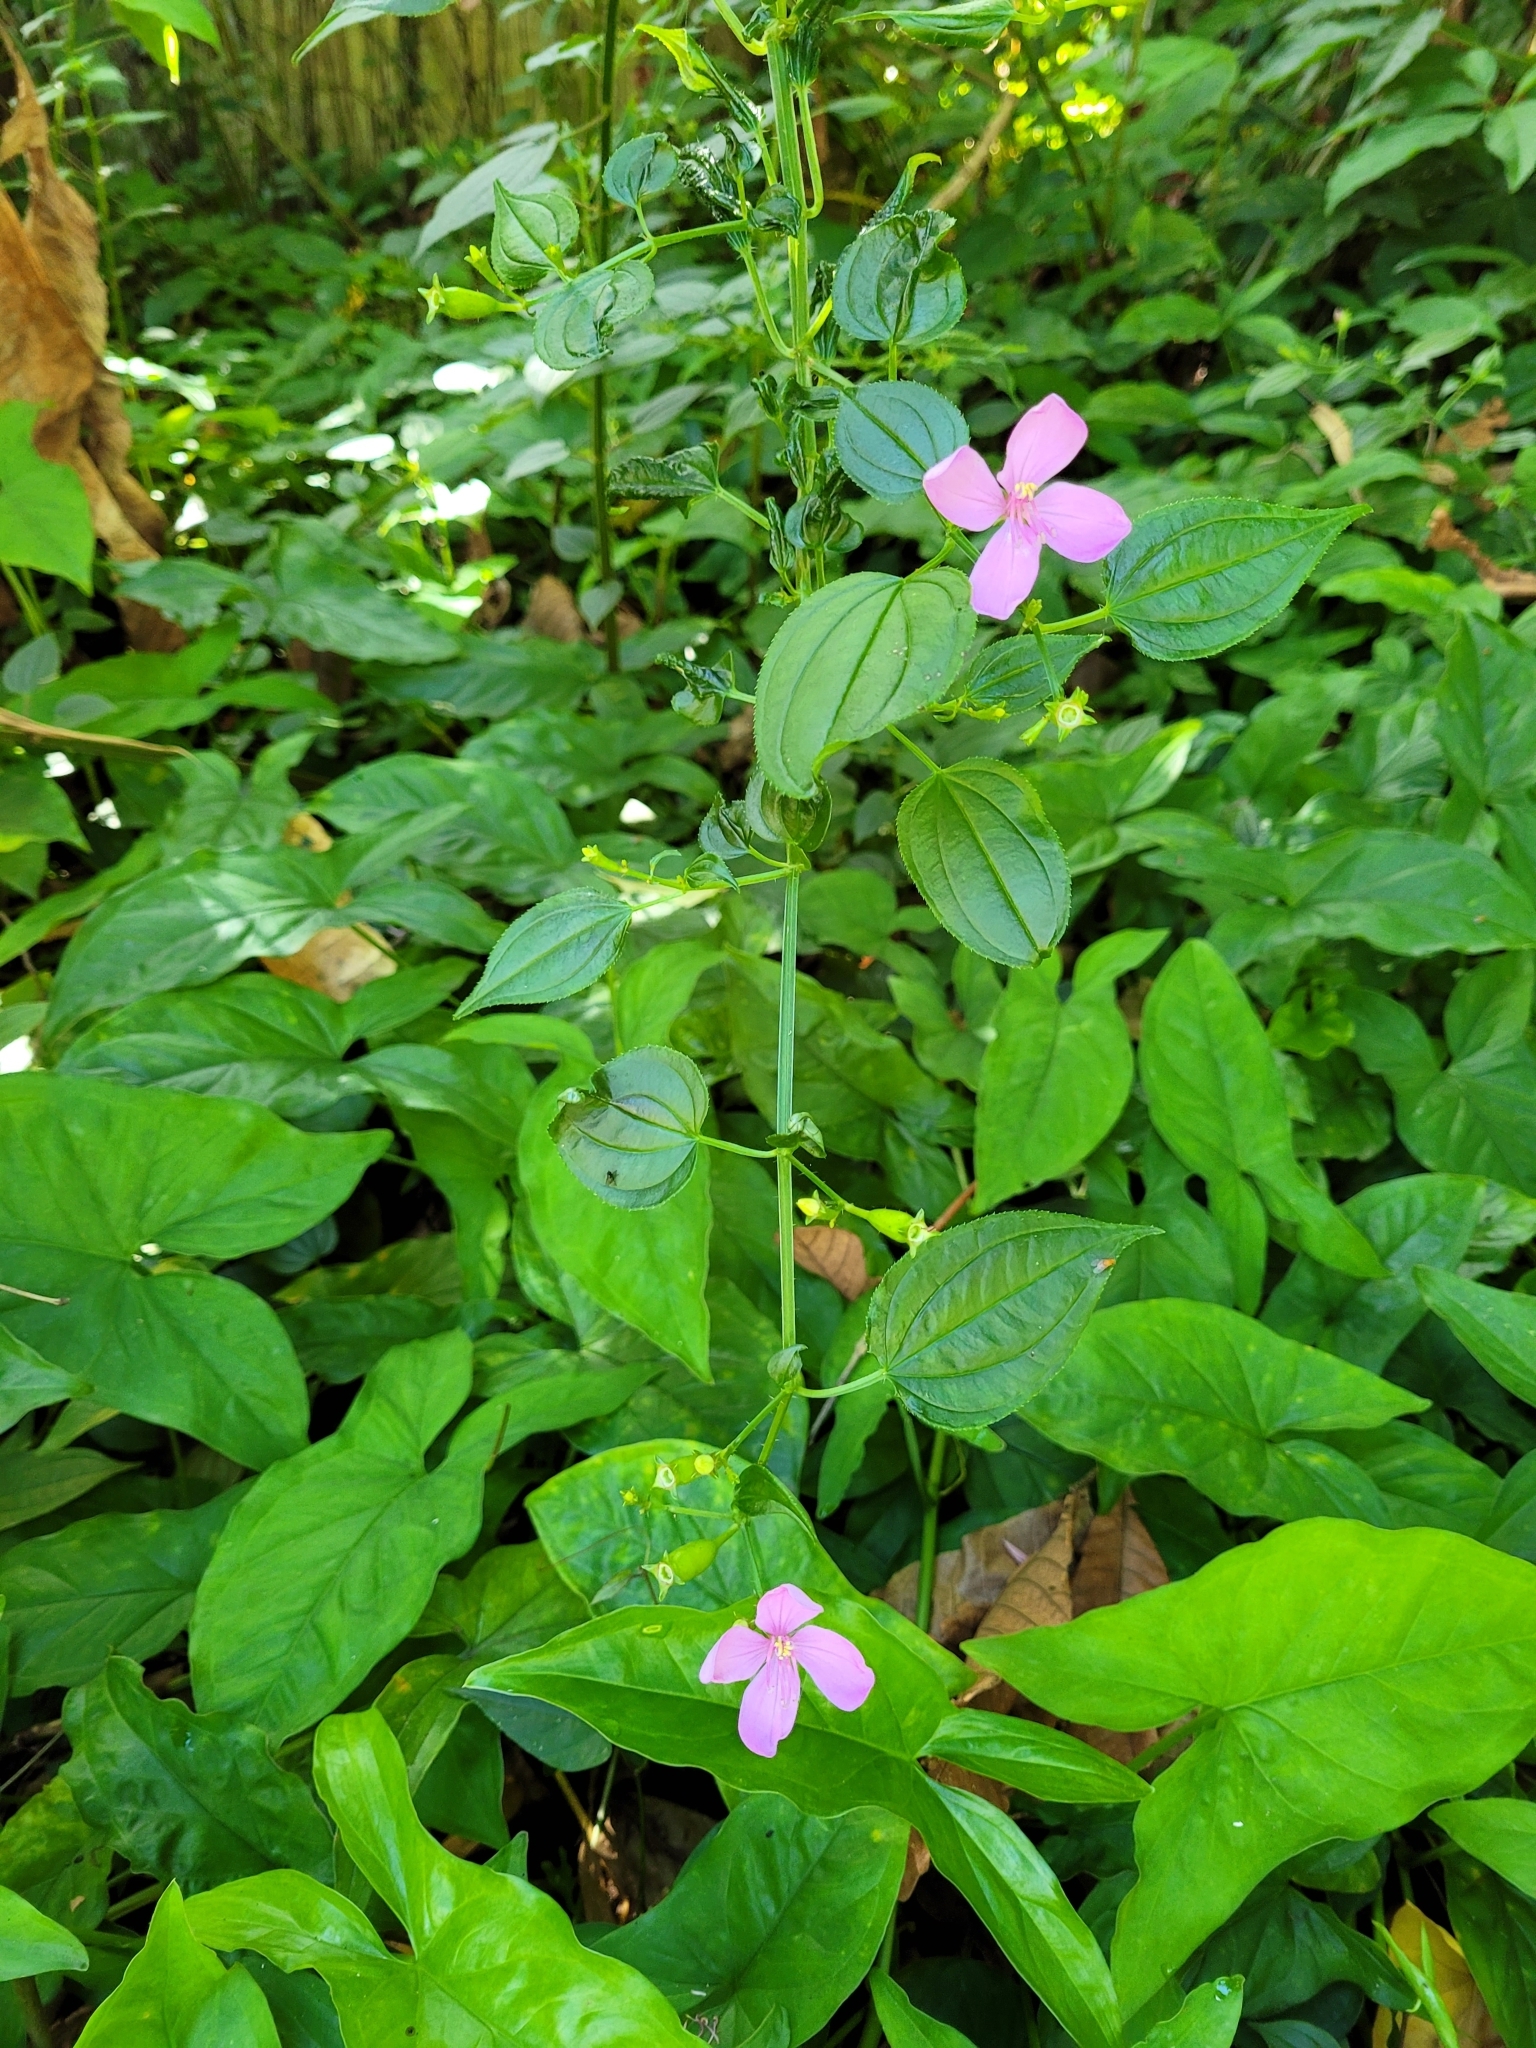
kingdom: Plantae
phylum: Tracheophyta
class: Magnoliopsida
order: Myrtales
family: Melastomataceae
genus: Arthrostemma
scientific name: Arthrostemma ciliatum
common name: Everblooming eavender
